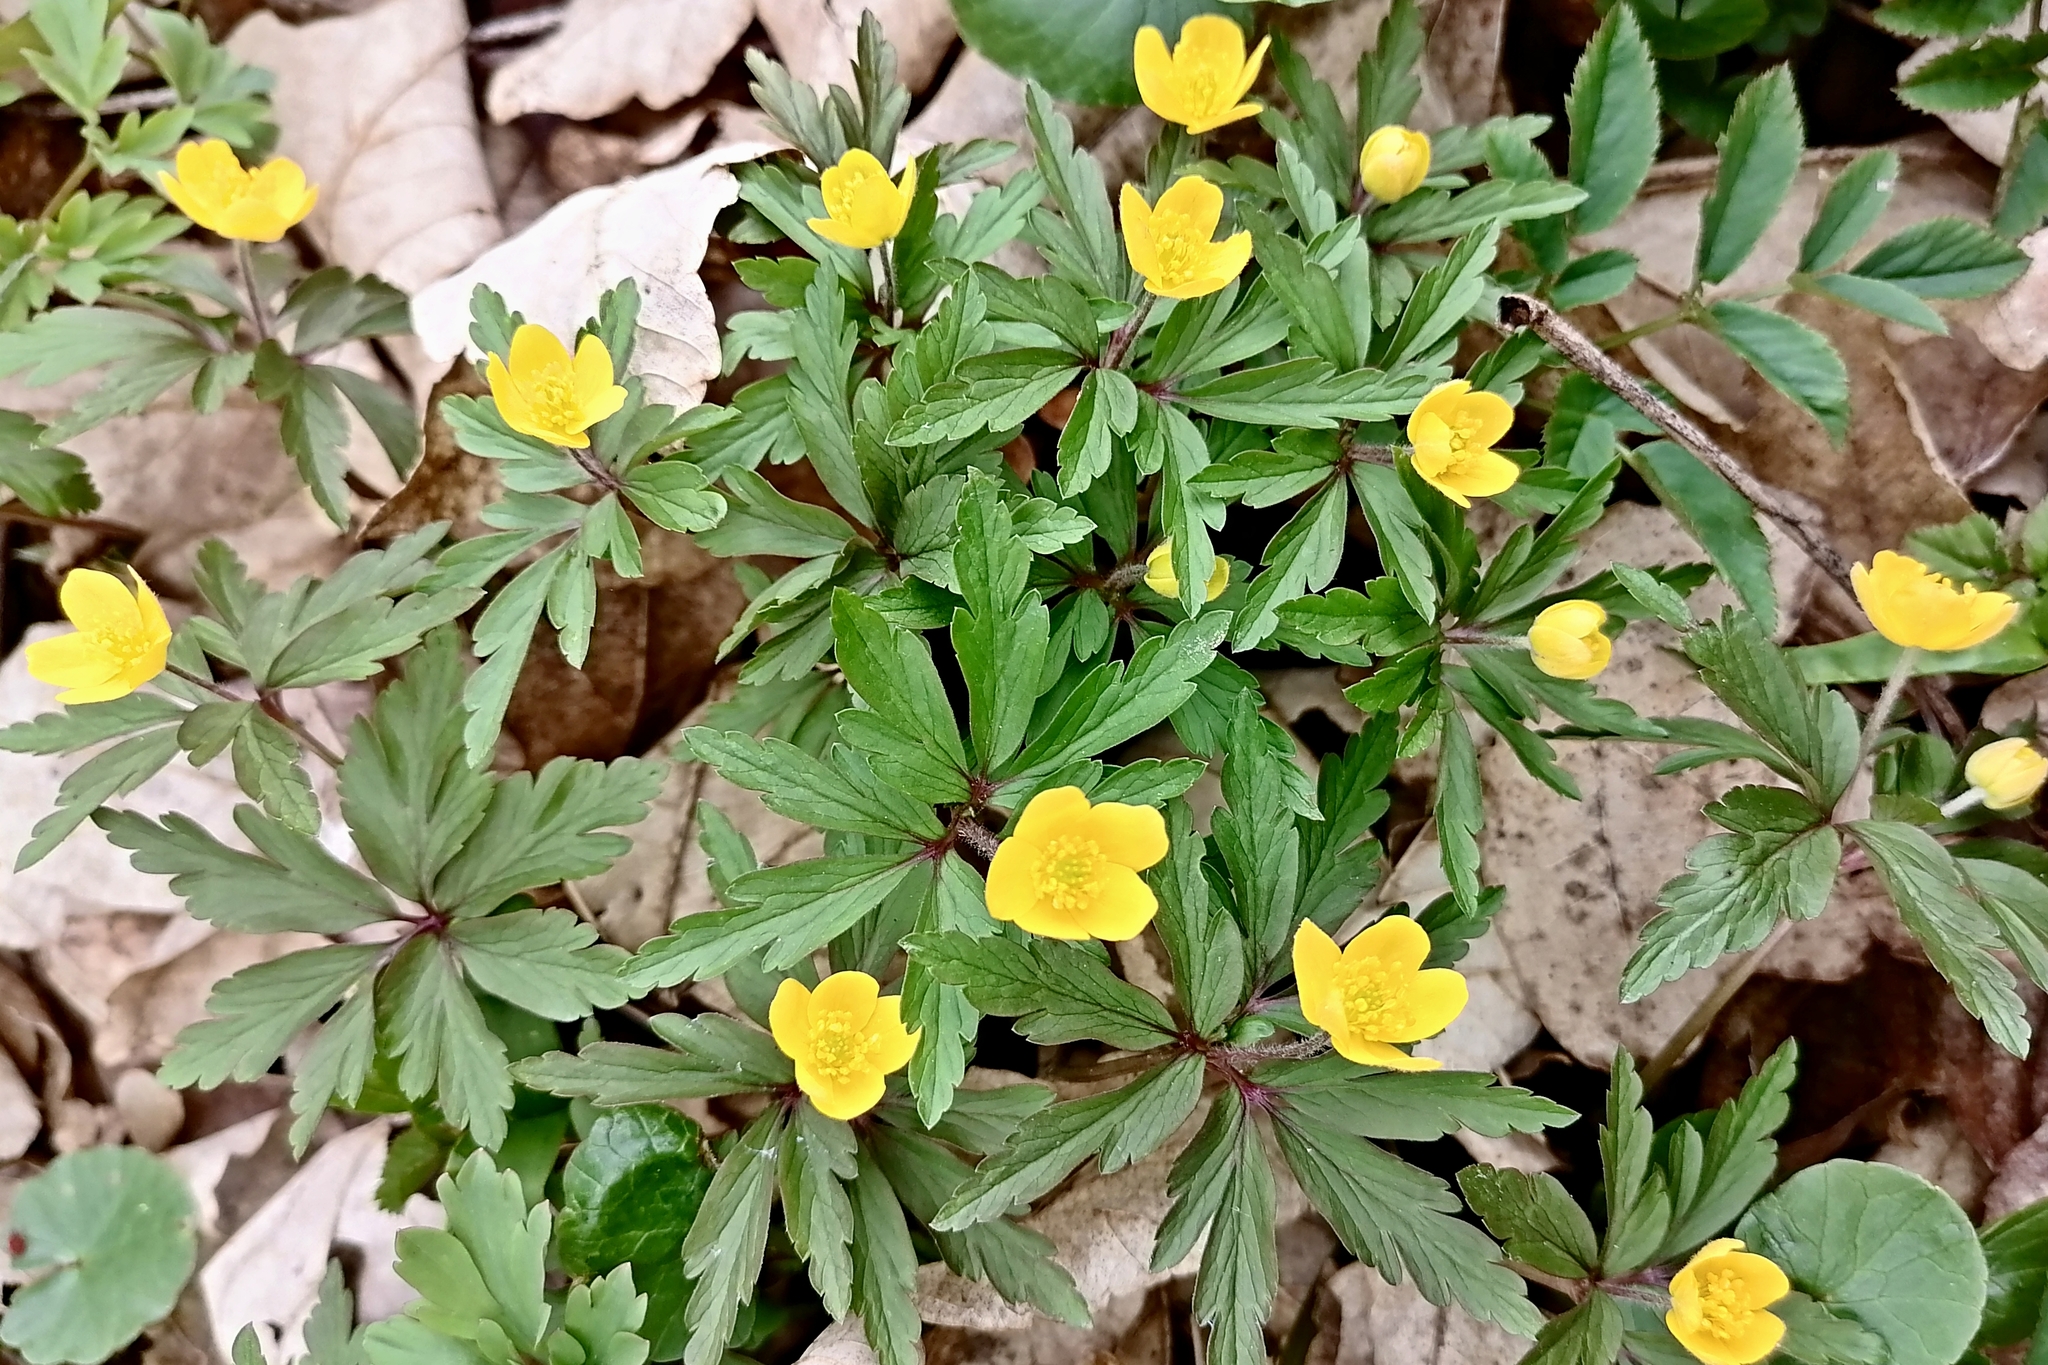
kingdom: Plantae
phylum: Tracheophyta
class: Magnoliopsida
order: Ranunculales
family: Ranunculaceae
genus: Anemone
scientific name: Anemone ranunculoides
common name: Yellow anemone
